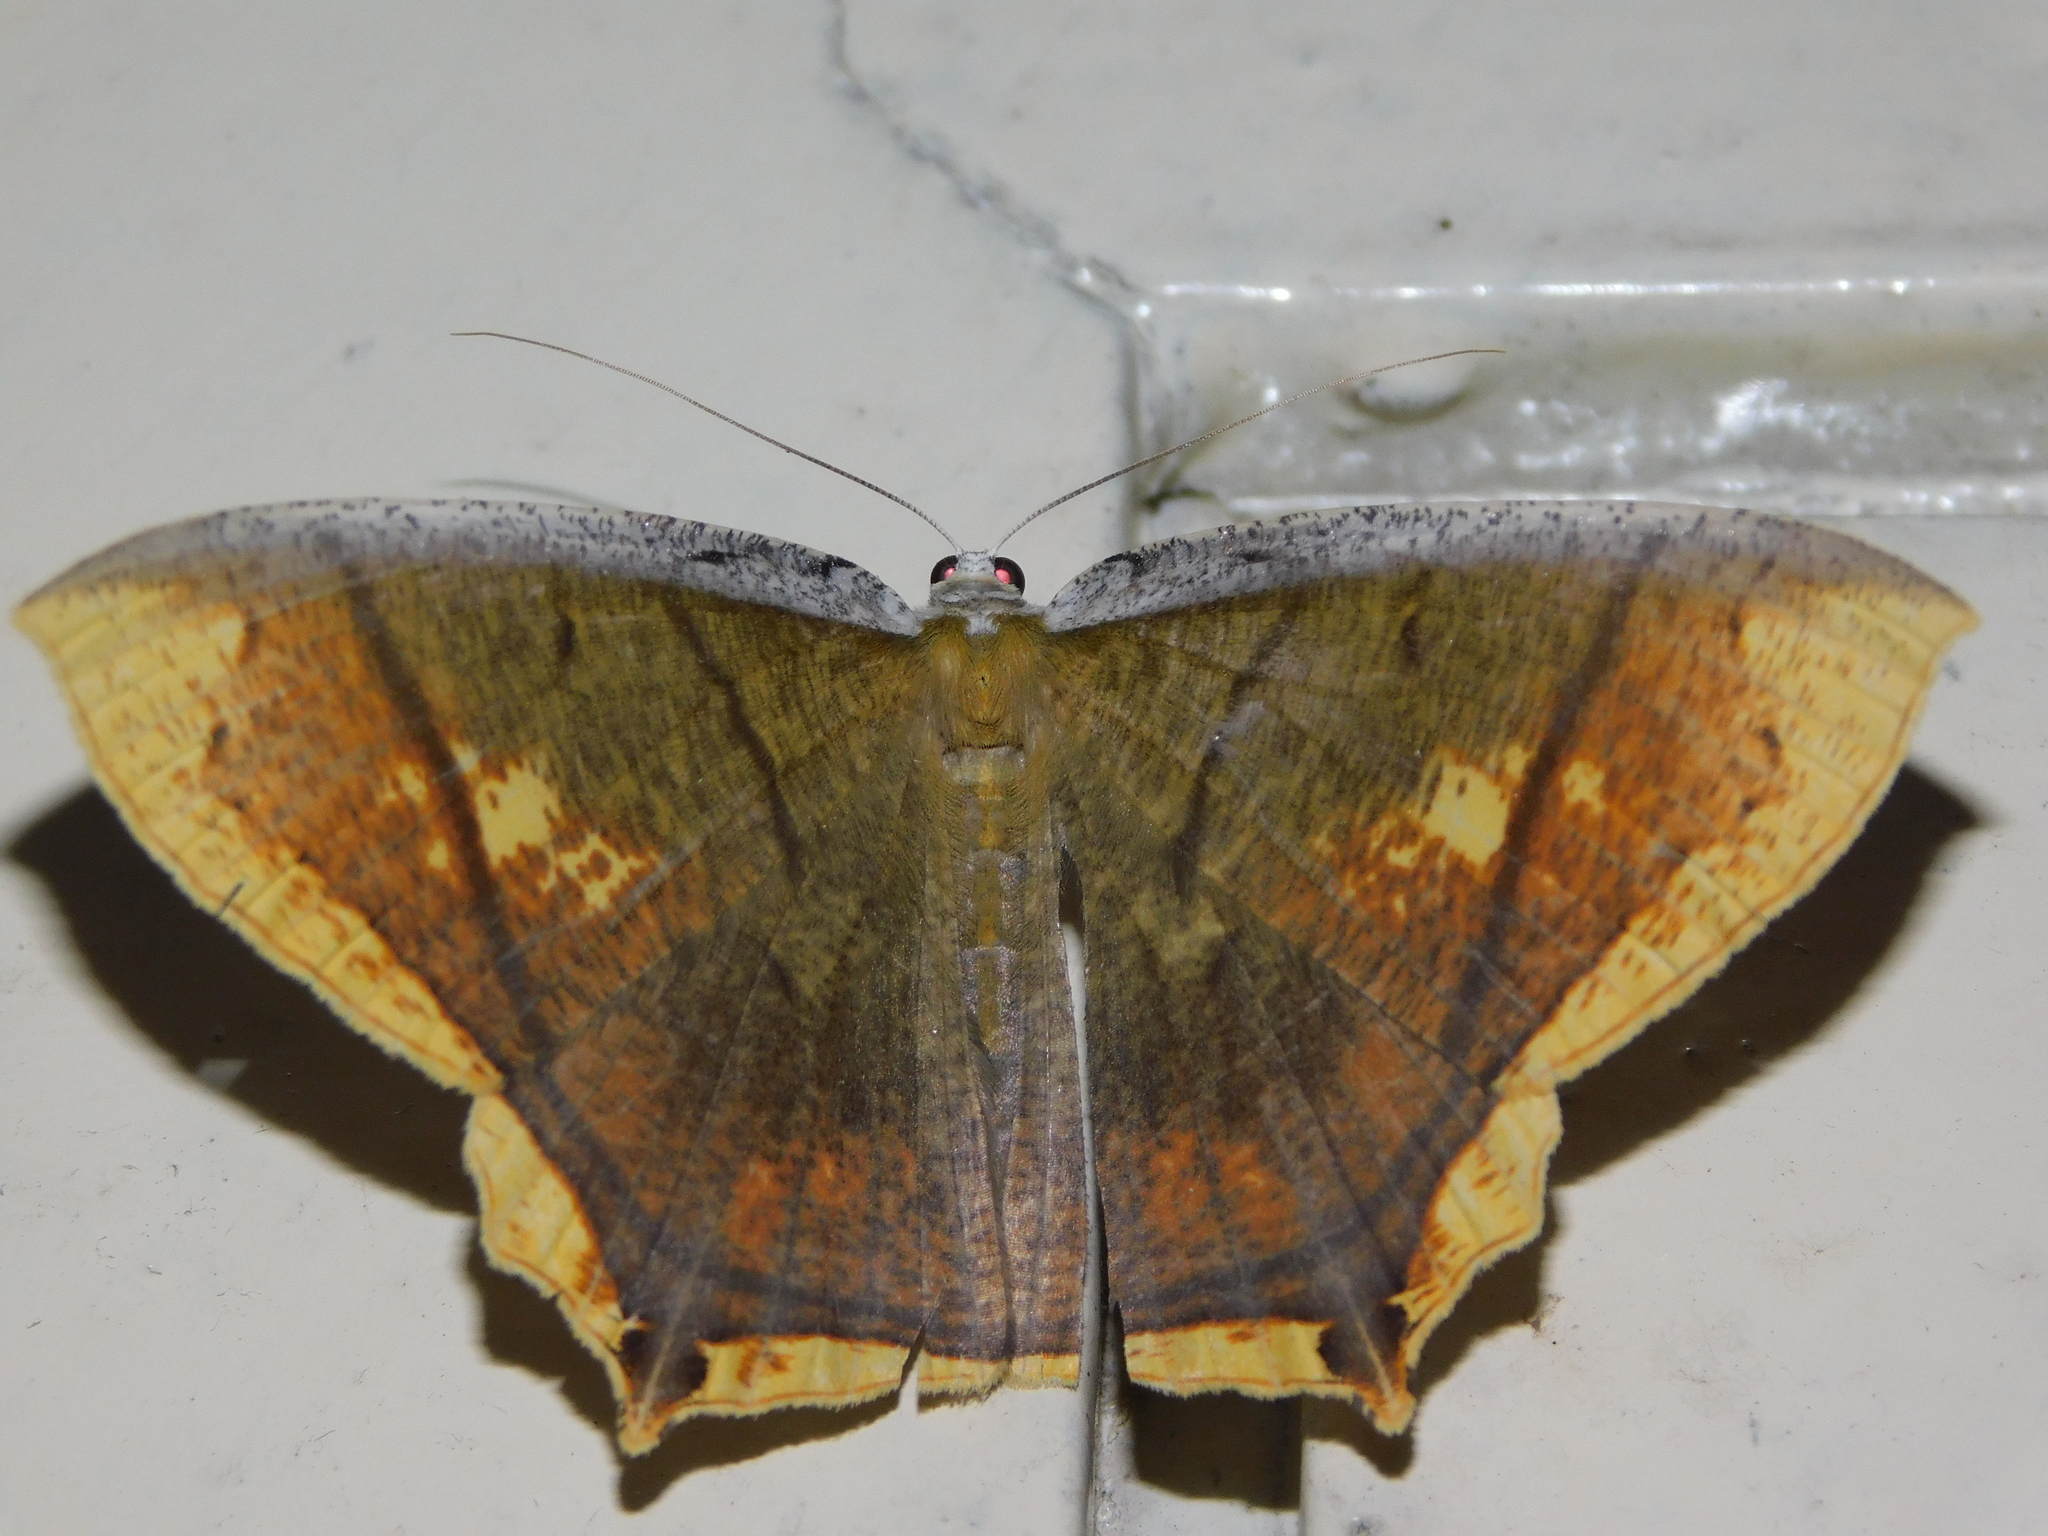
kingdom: Animalia
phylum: Arthropoda
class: Insecta
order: Lepidoptera
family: Geometridae
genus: Thinopteryx
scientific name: Thinopteryx crocoptera
